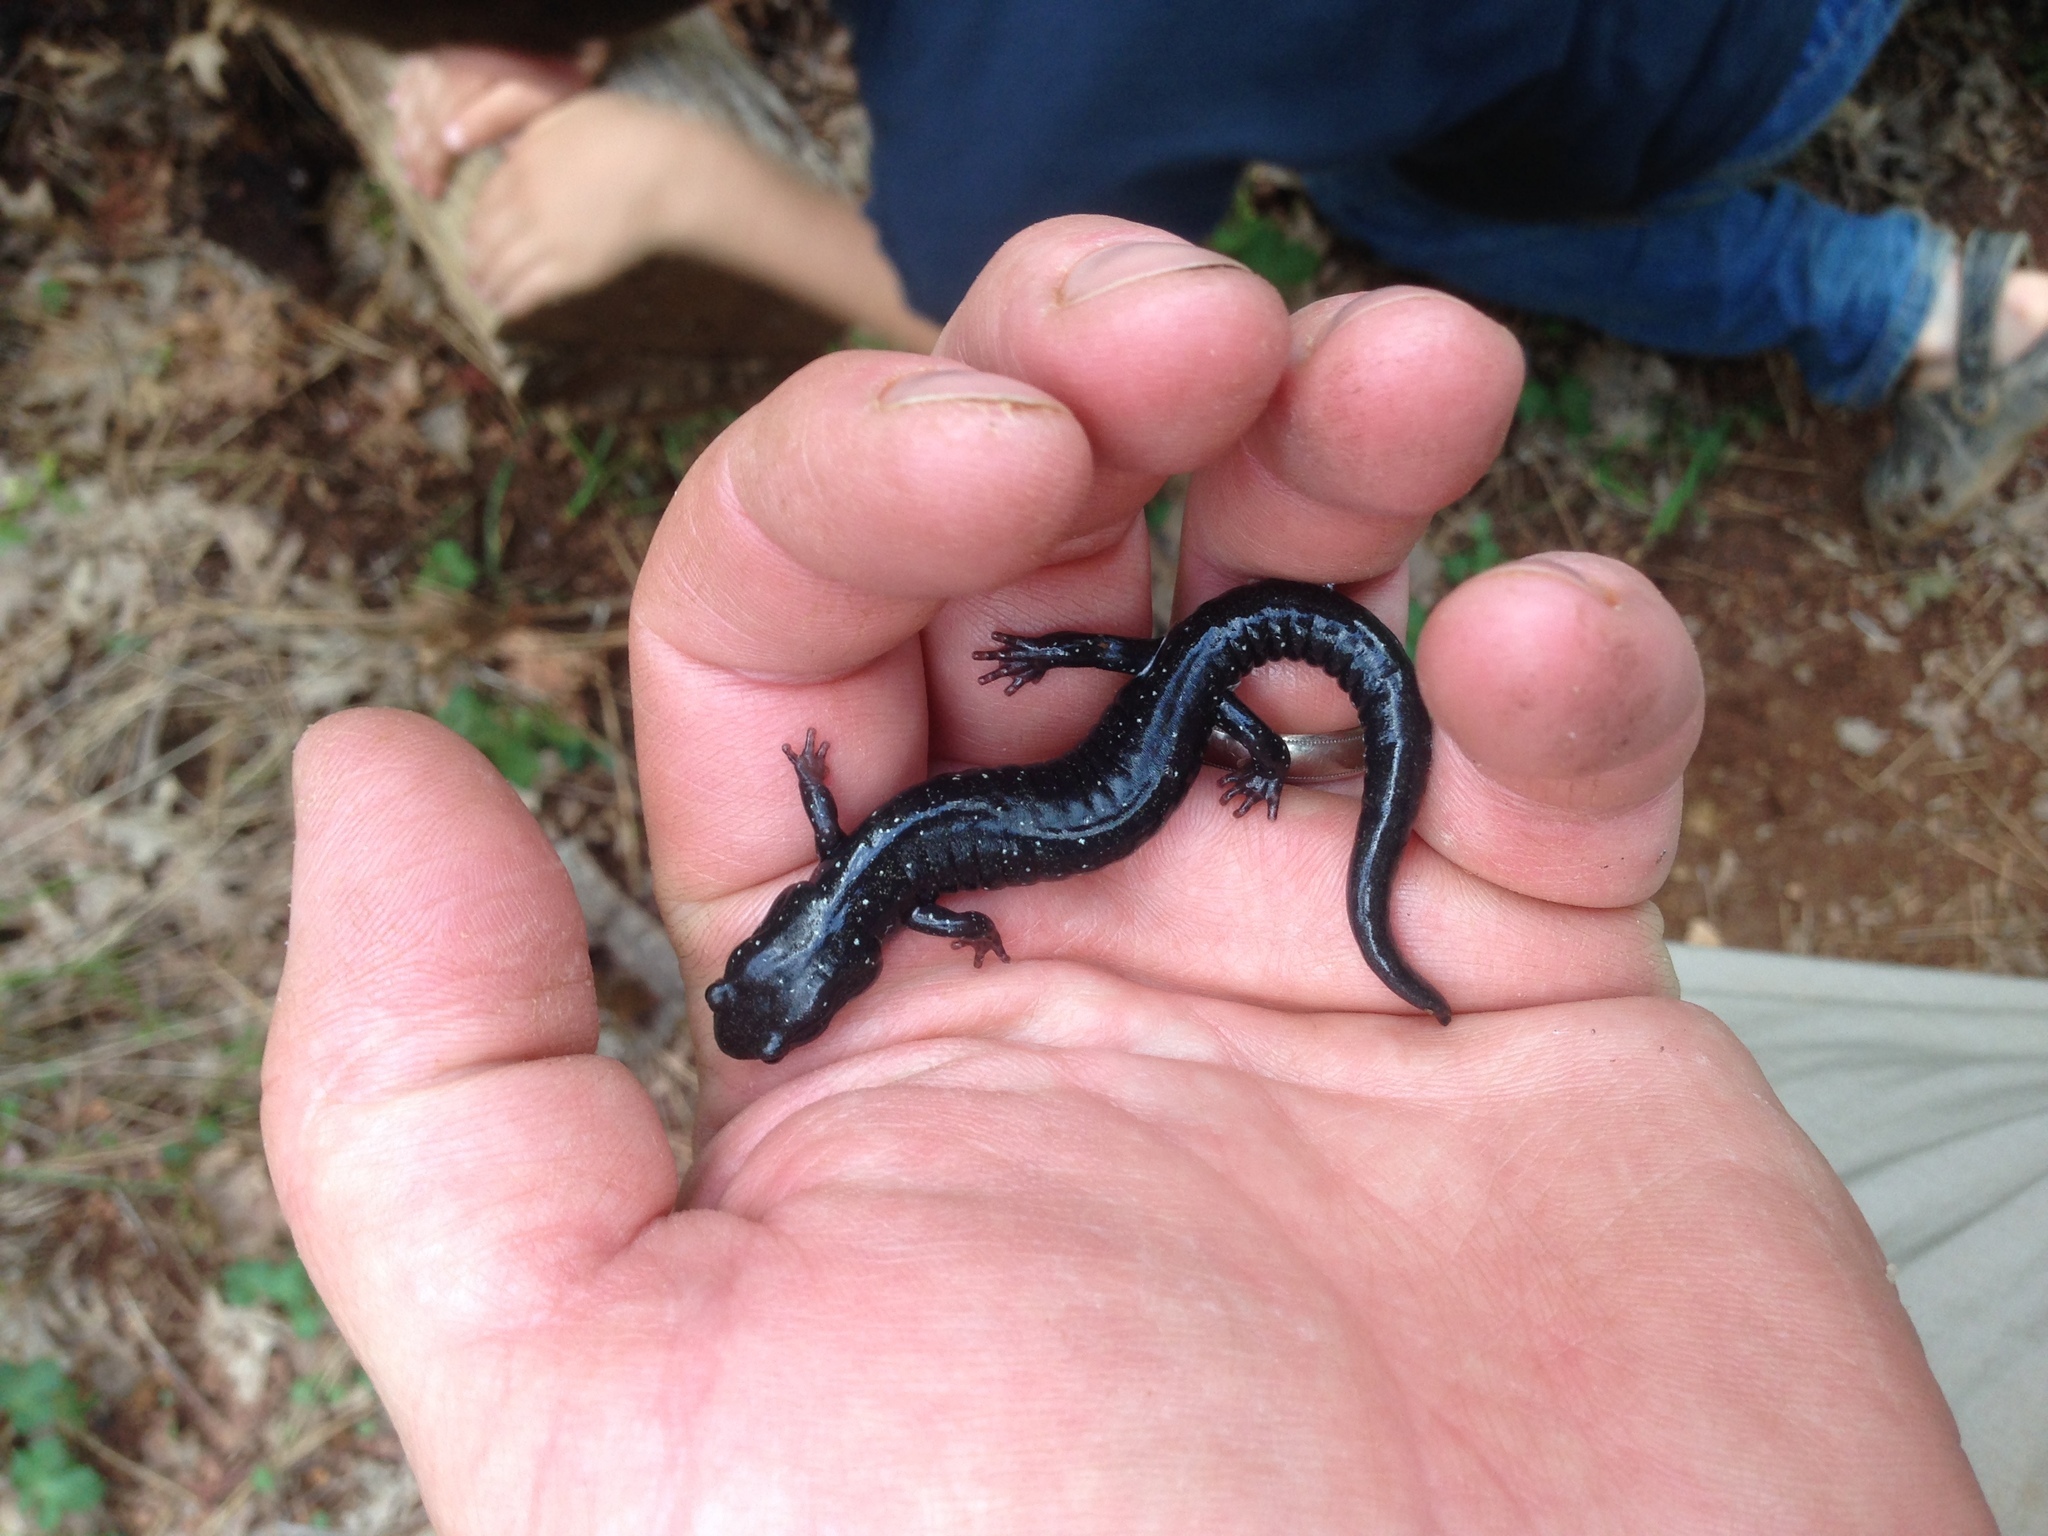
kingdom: Animalia
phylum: Chordata
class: Amphibia
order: Caudata
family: Plethodontidae
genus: Aneides
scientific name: Aneides iecanus
